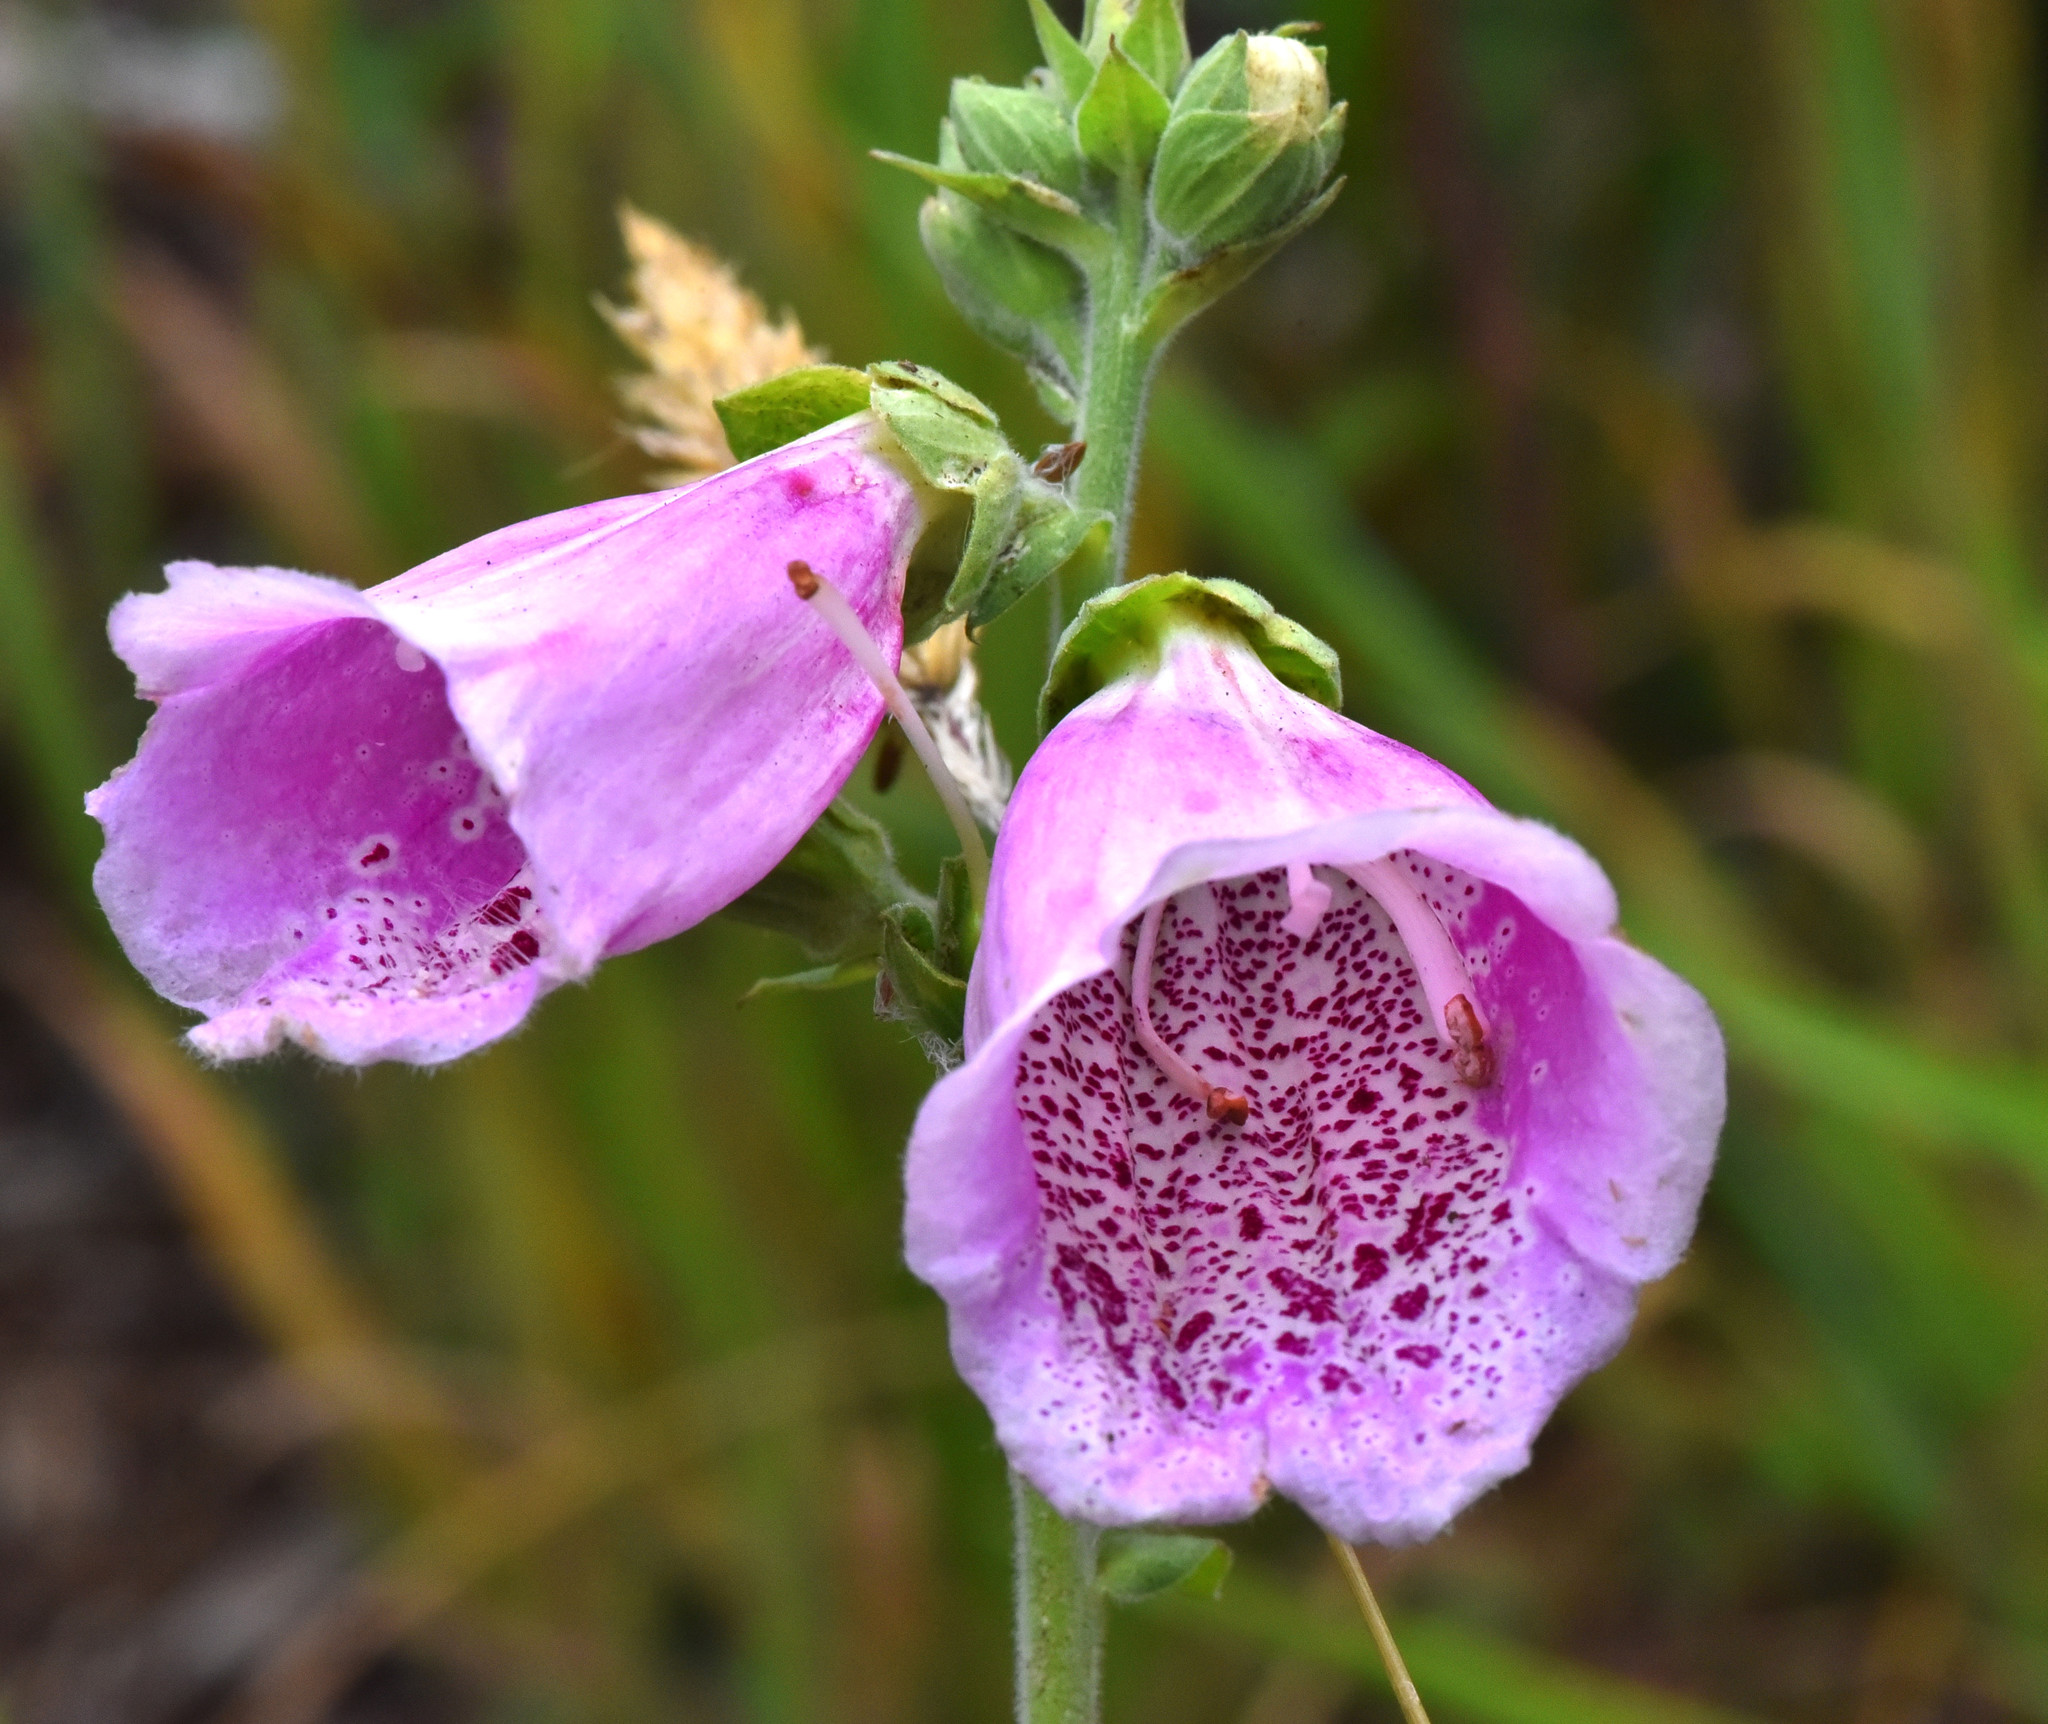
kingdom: Plantae
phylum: Tracheophyta
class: Magnoliopsida
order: Lamiales
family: Plantaginaceae
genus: Digitalis
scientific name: Digitalis purpurea
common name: Foxglove
